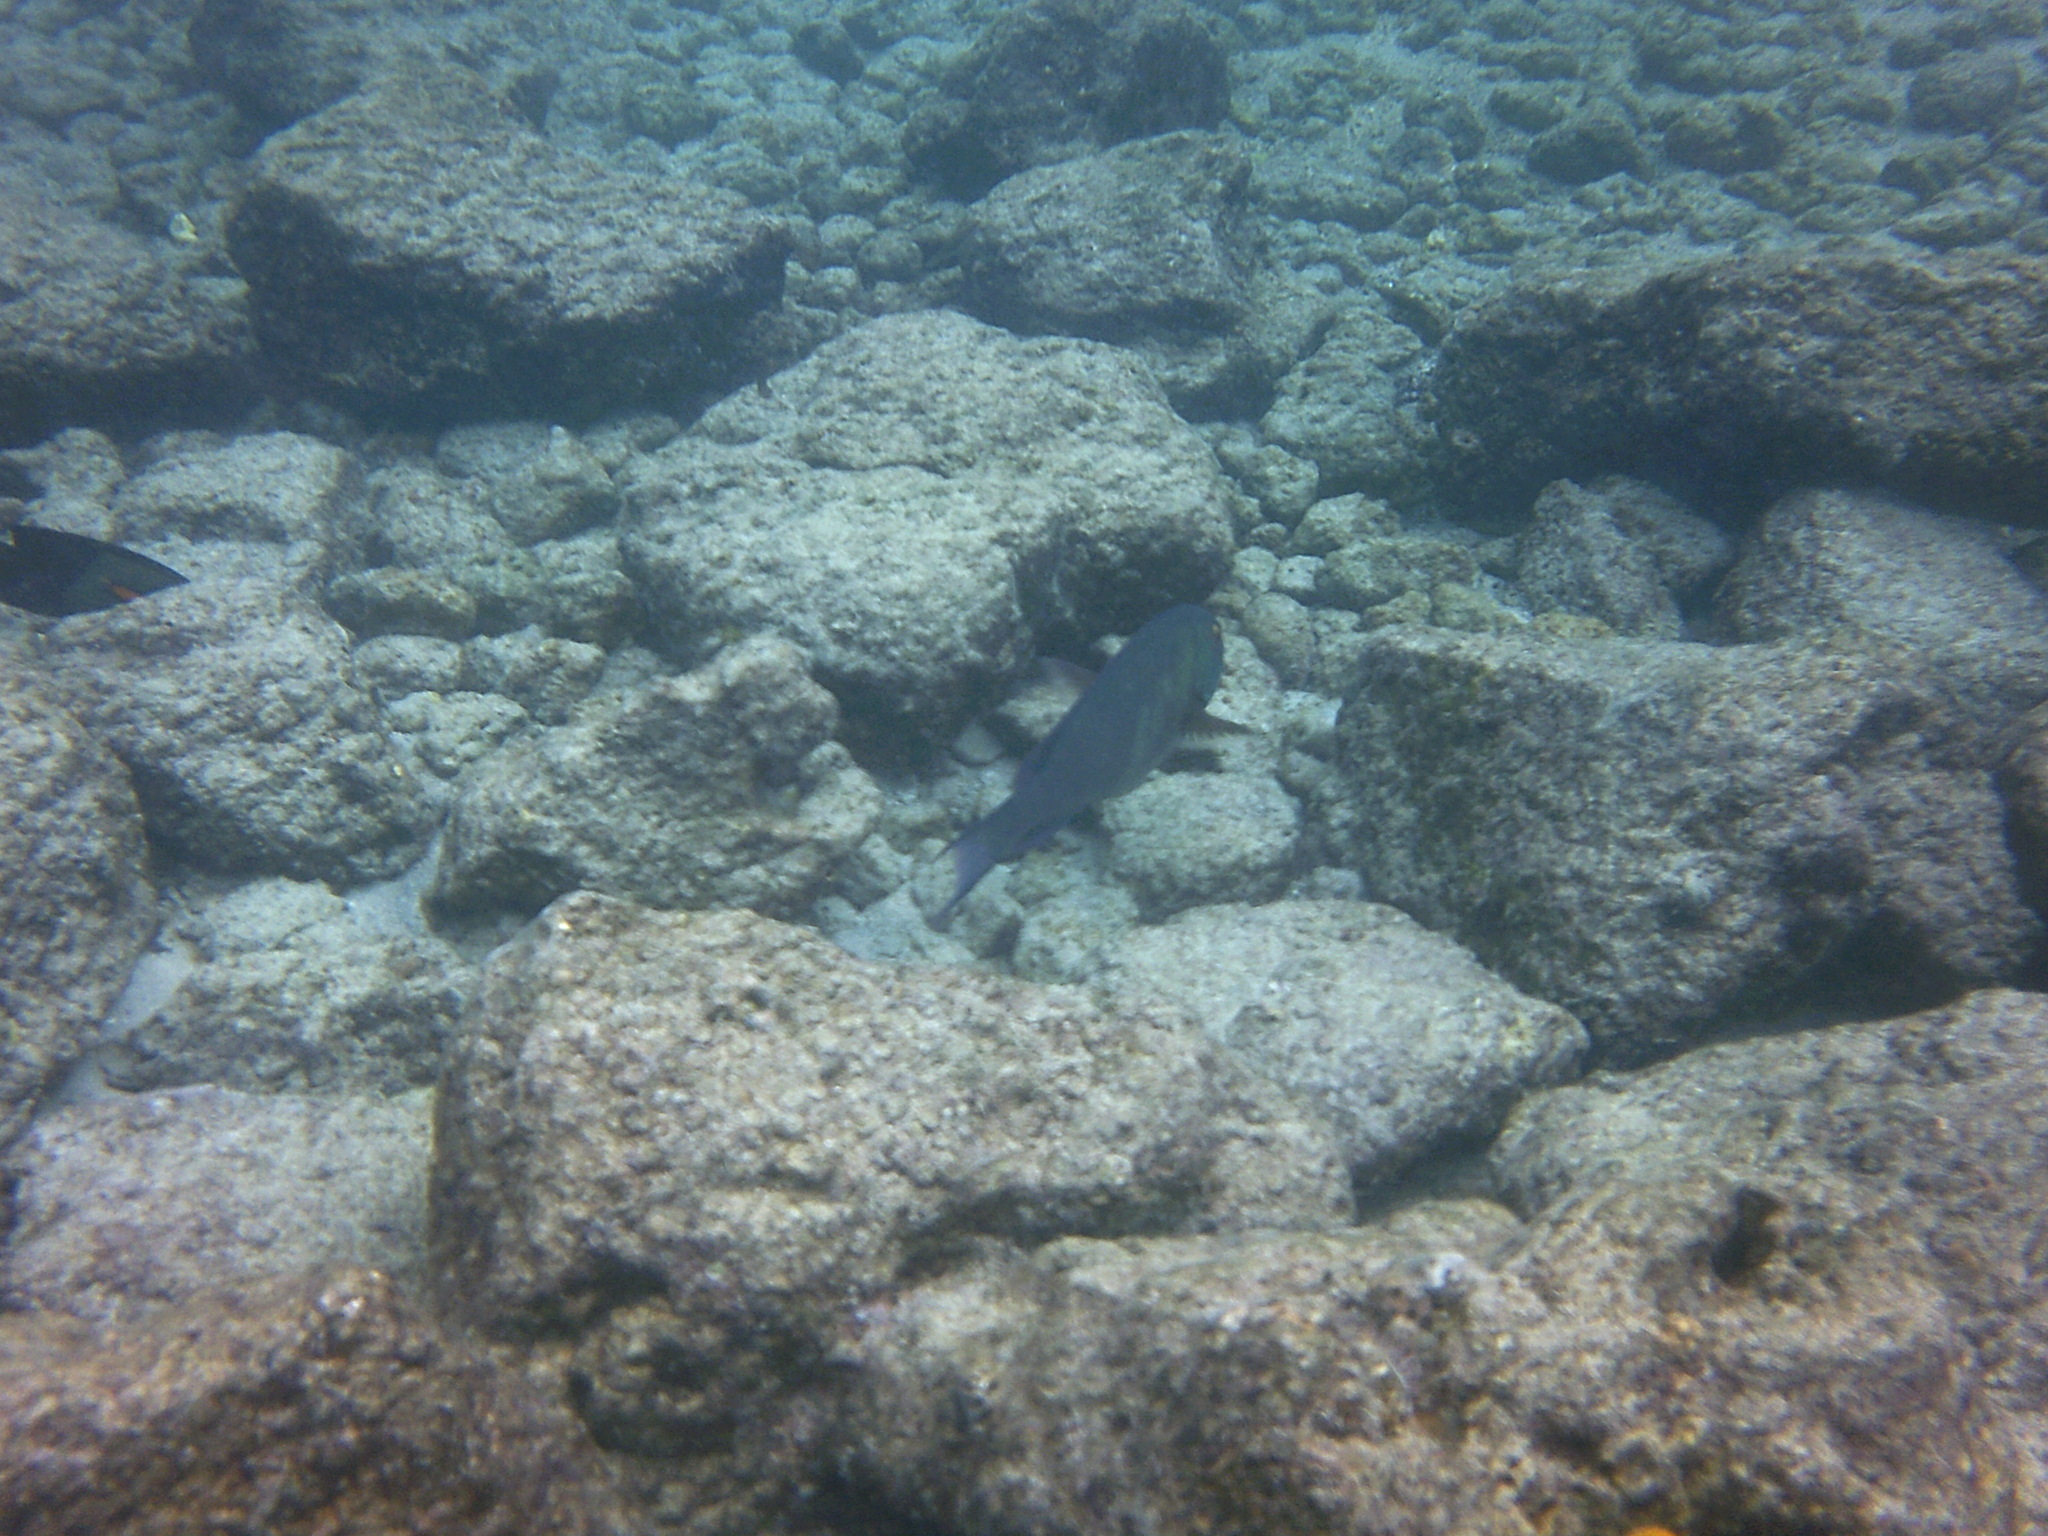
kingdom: Animalia
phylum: Chordata
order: Perciformes
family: Scaridae
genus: Calotomus
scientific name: Calotomus carolinus
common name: Bucktooth
